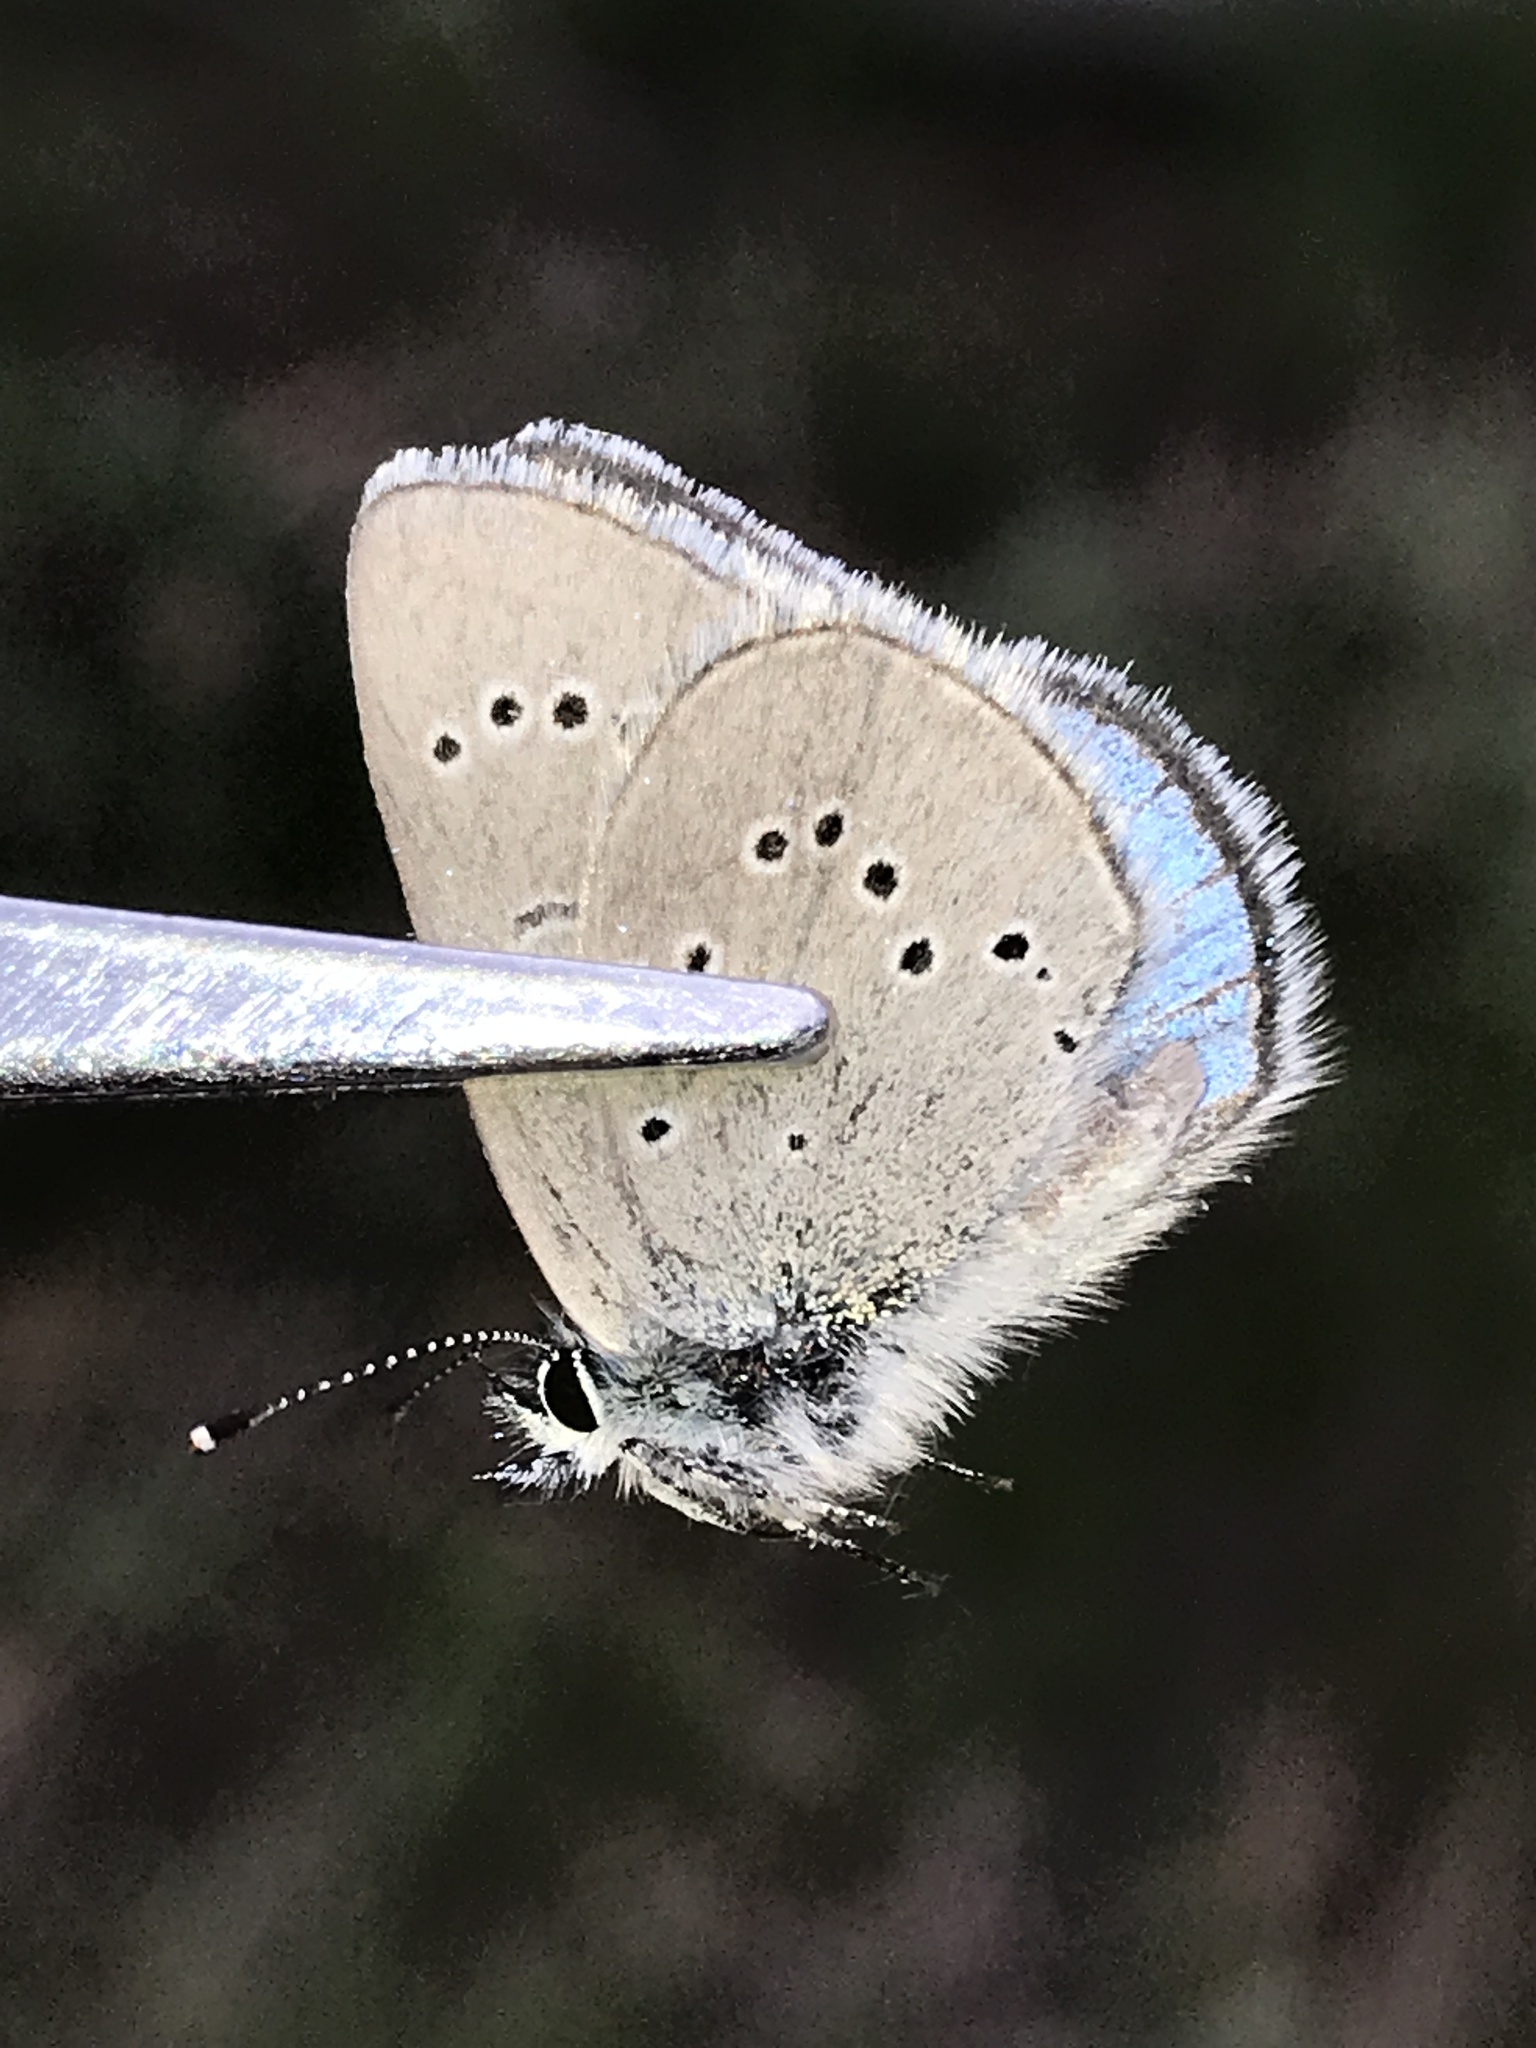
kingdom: Animalia
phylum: Arthropoda
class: Insecta
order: Lepidoptera
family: Lycaenidae
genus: Glaucopsyche
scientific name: Glaucopsyche lygdamus
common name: Silvery blue
